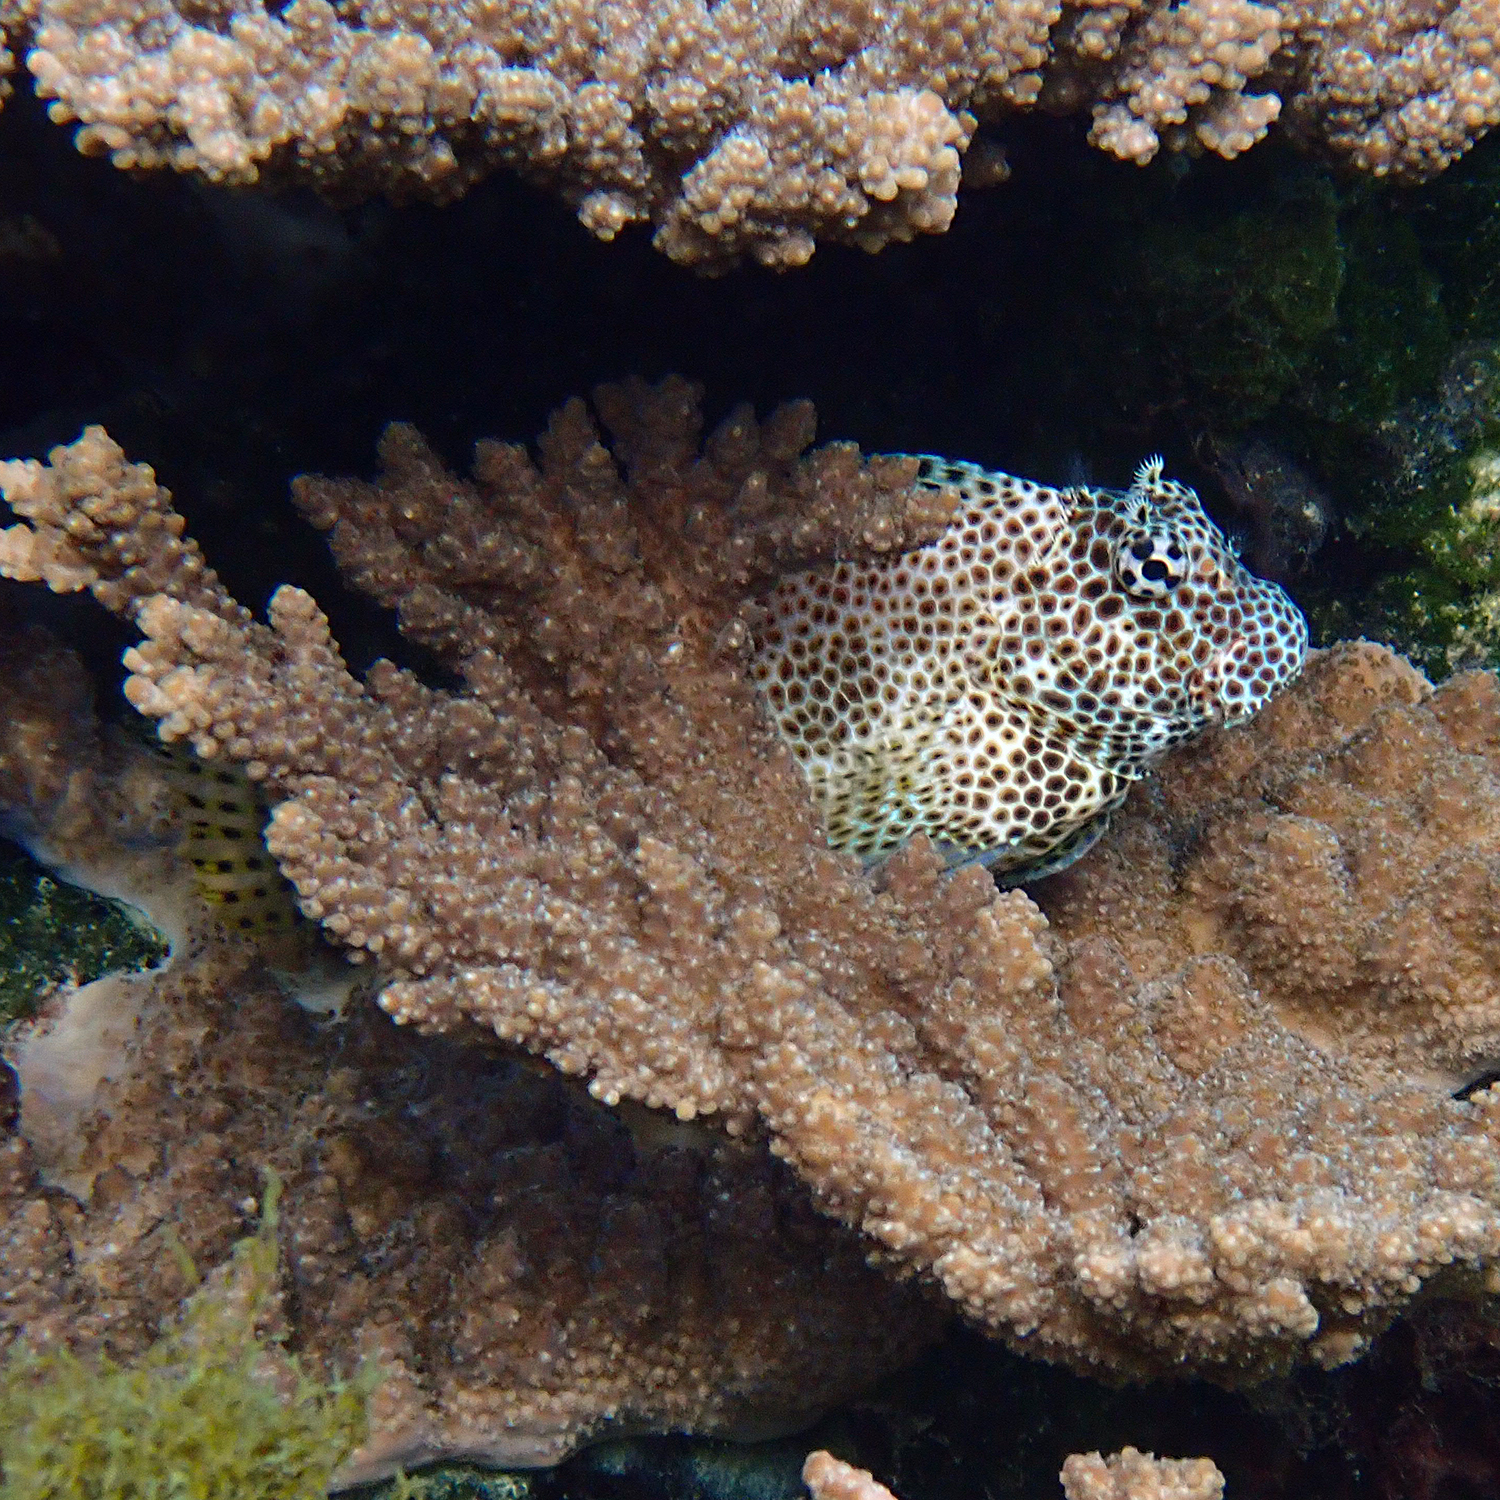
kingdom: Animalia
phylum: Chordata
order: Perciformes
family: Blenniidae
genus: Exallias
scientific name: Exallias brevis
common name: Leopard blenny
